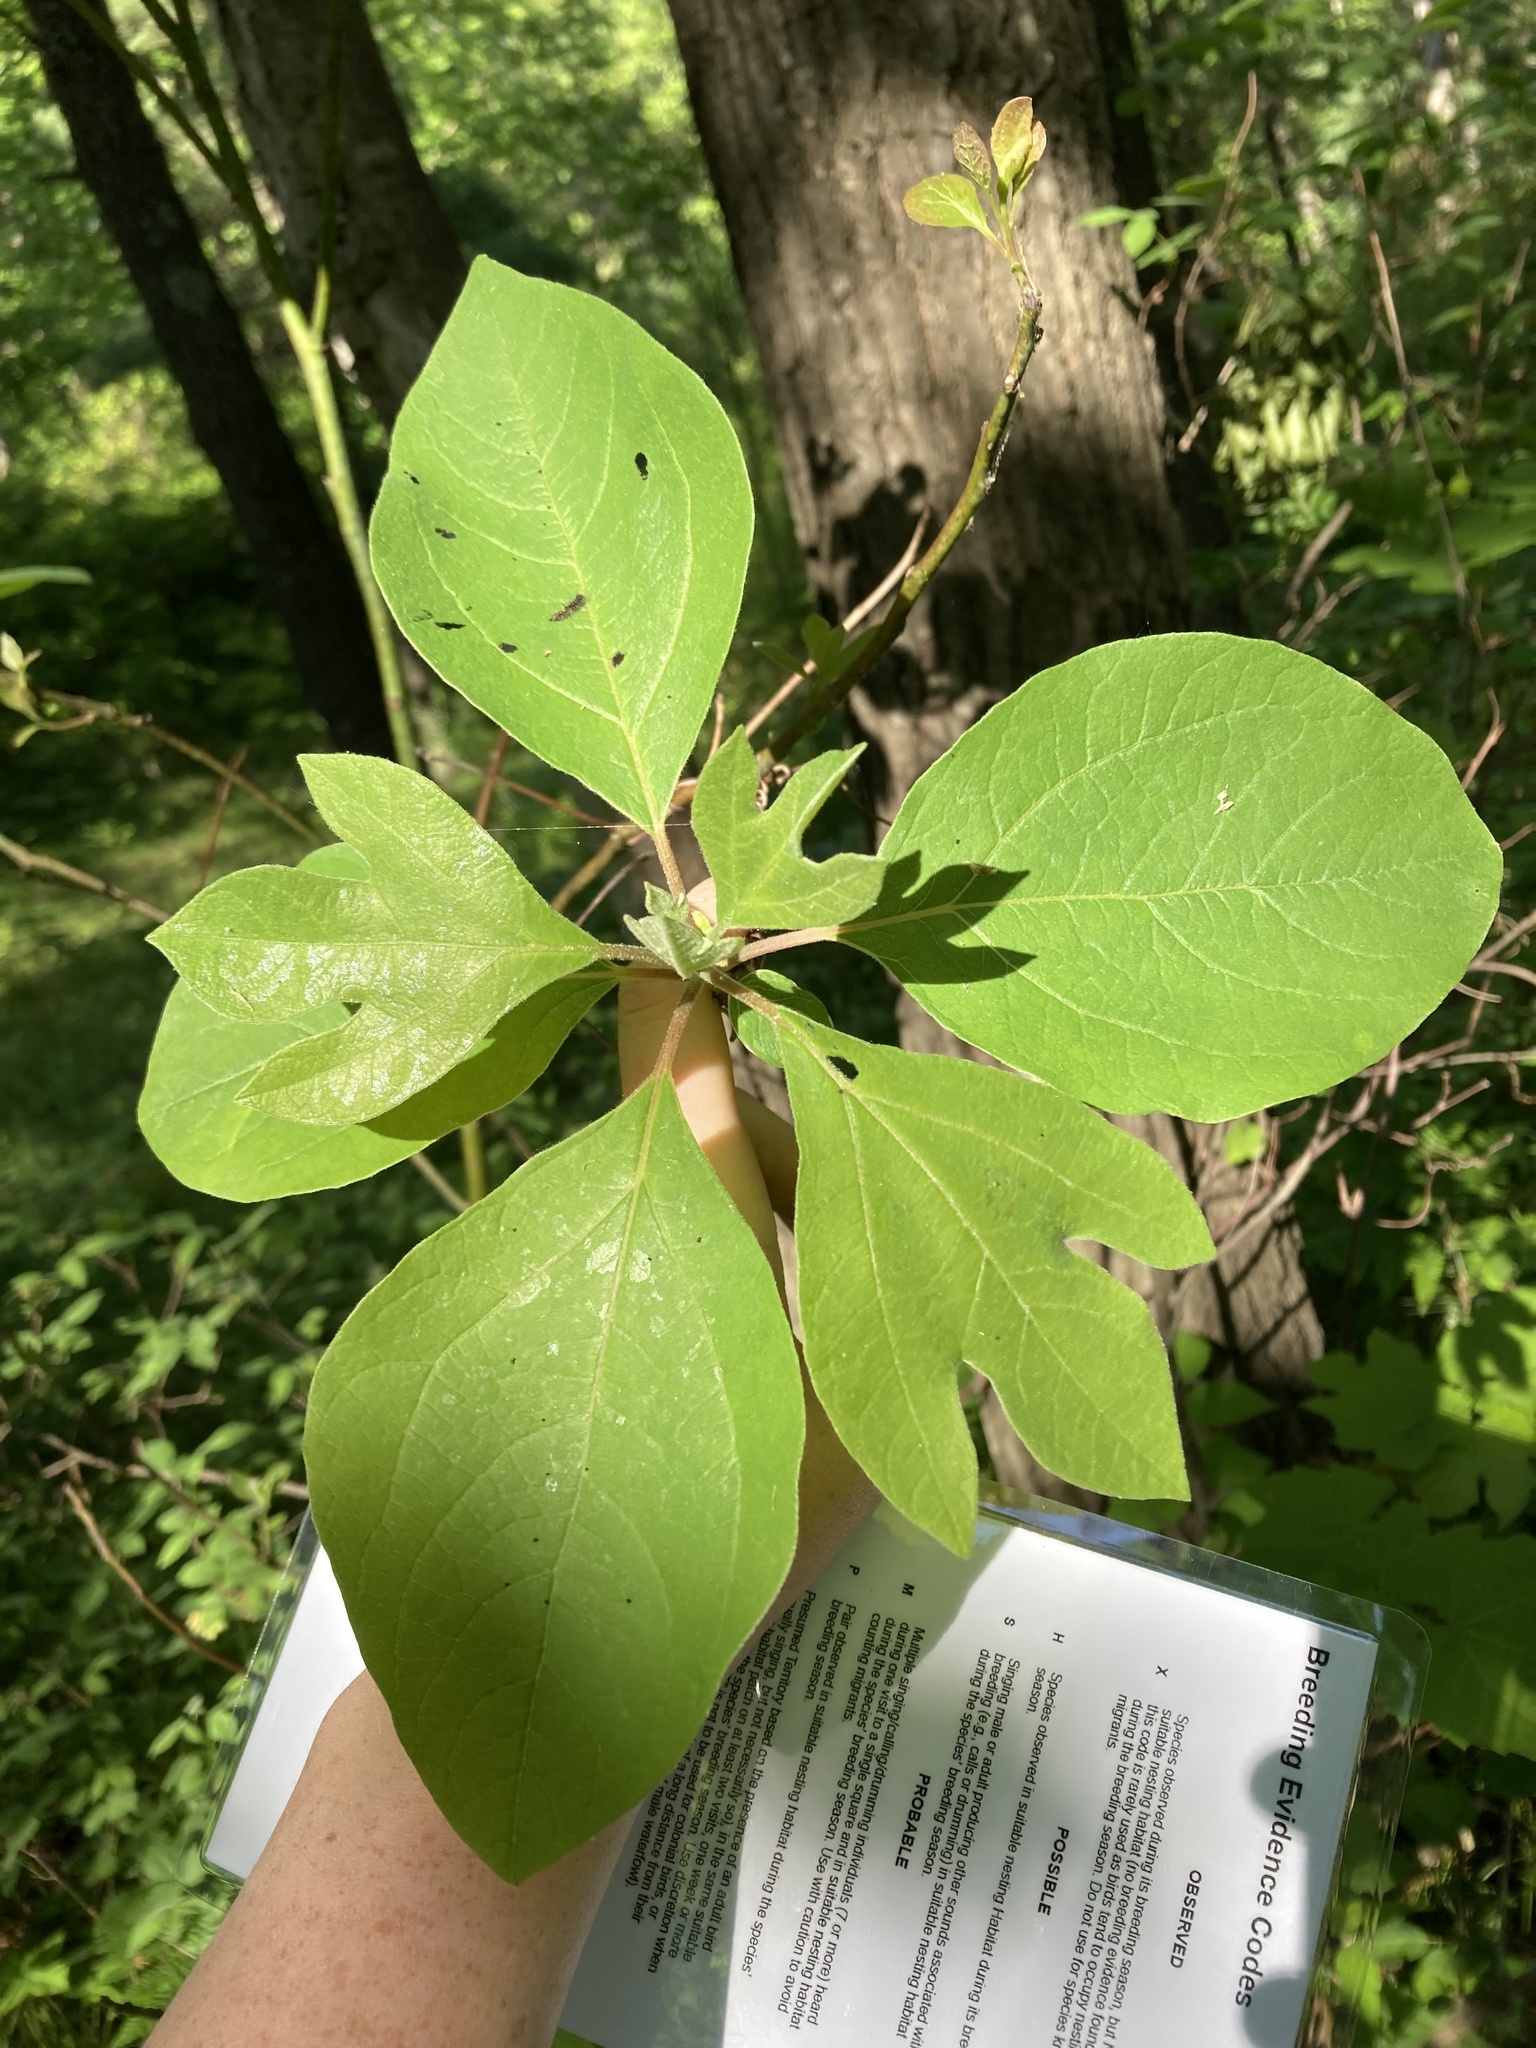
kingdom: Plantae
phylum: Tracheophyta
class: Magnoliopsida
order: Laurales
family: Lauraceae
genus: Sassafras
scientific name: Sassafras albidum
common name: Sassafras
